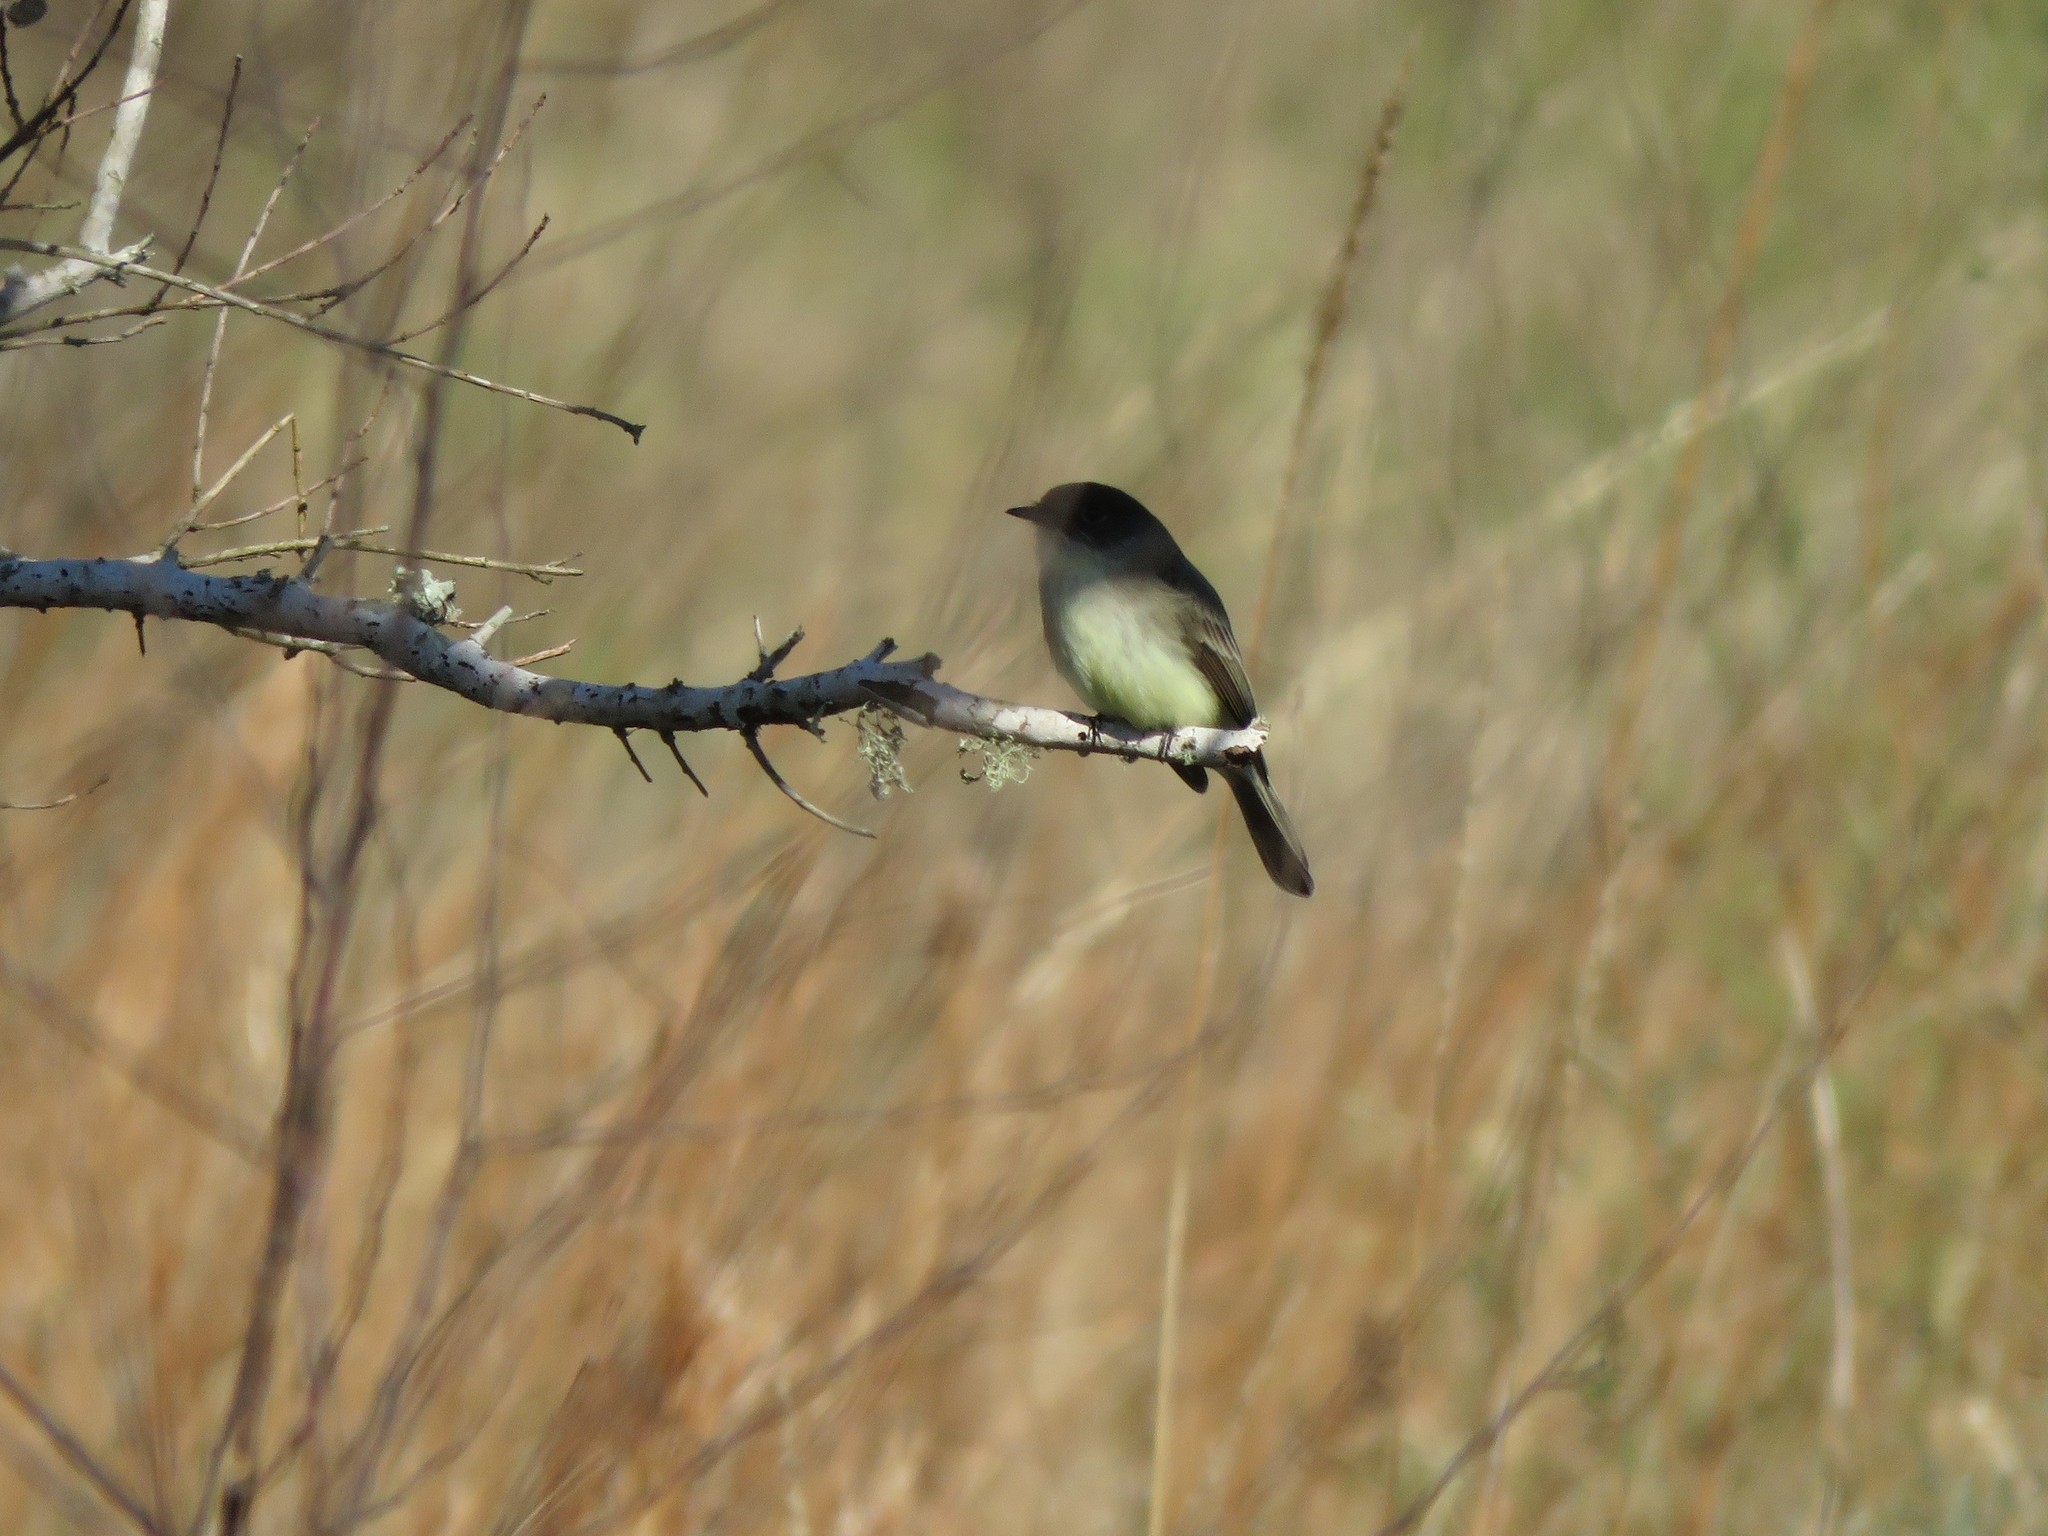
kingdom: Animalia
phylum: Chordata
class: Aves
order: Passeriformes
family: Tyrannidae
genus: Sayornis
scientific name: Sayornis phoebe
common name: Eastern phoebe
